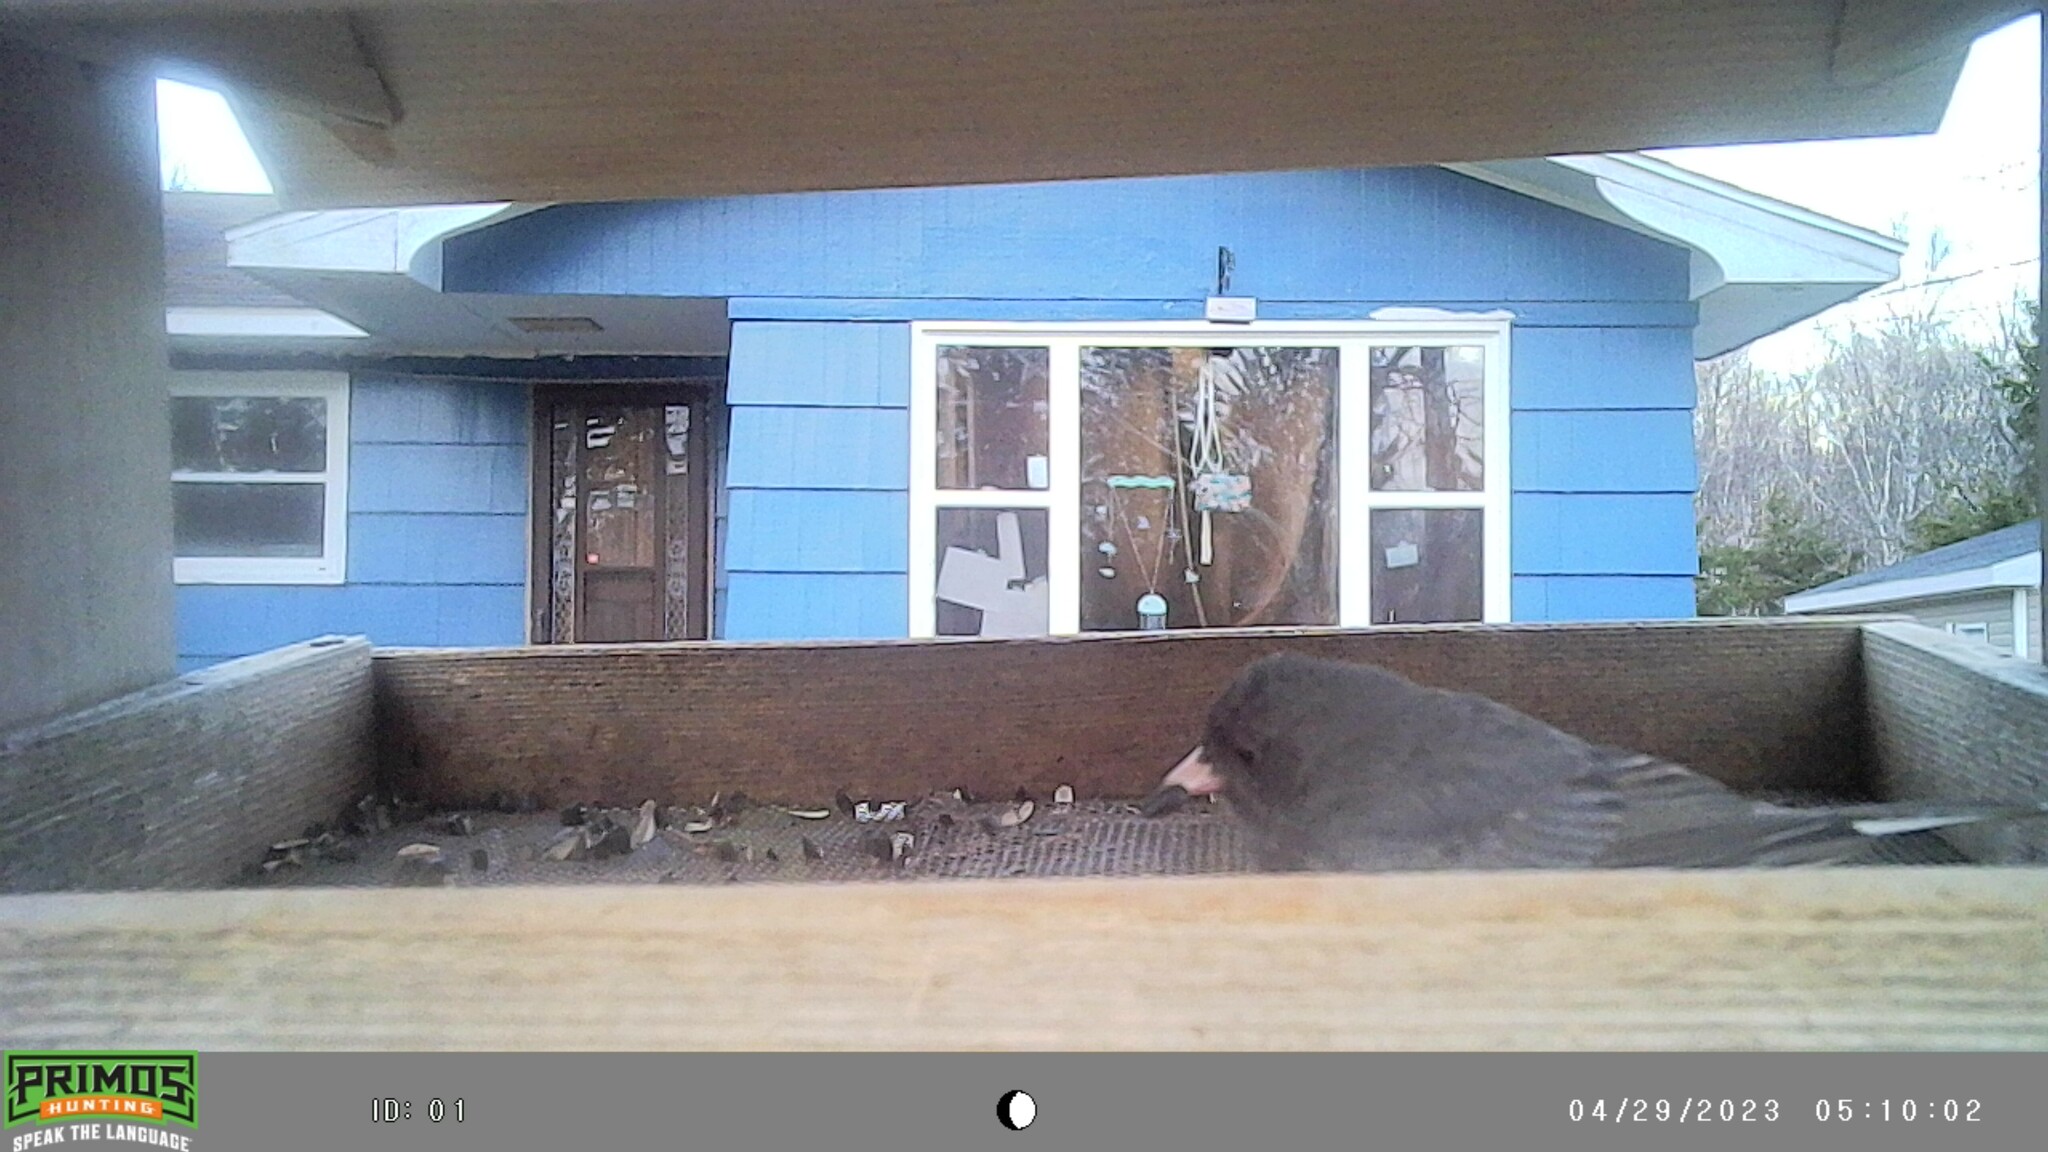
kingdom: Animalia
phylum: Chordata
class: Aves
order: Passeriformes
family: Passerellidae
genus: Junco
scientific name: Junco hyemalis
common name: Dark-eyed junco
